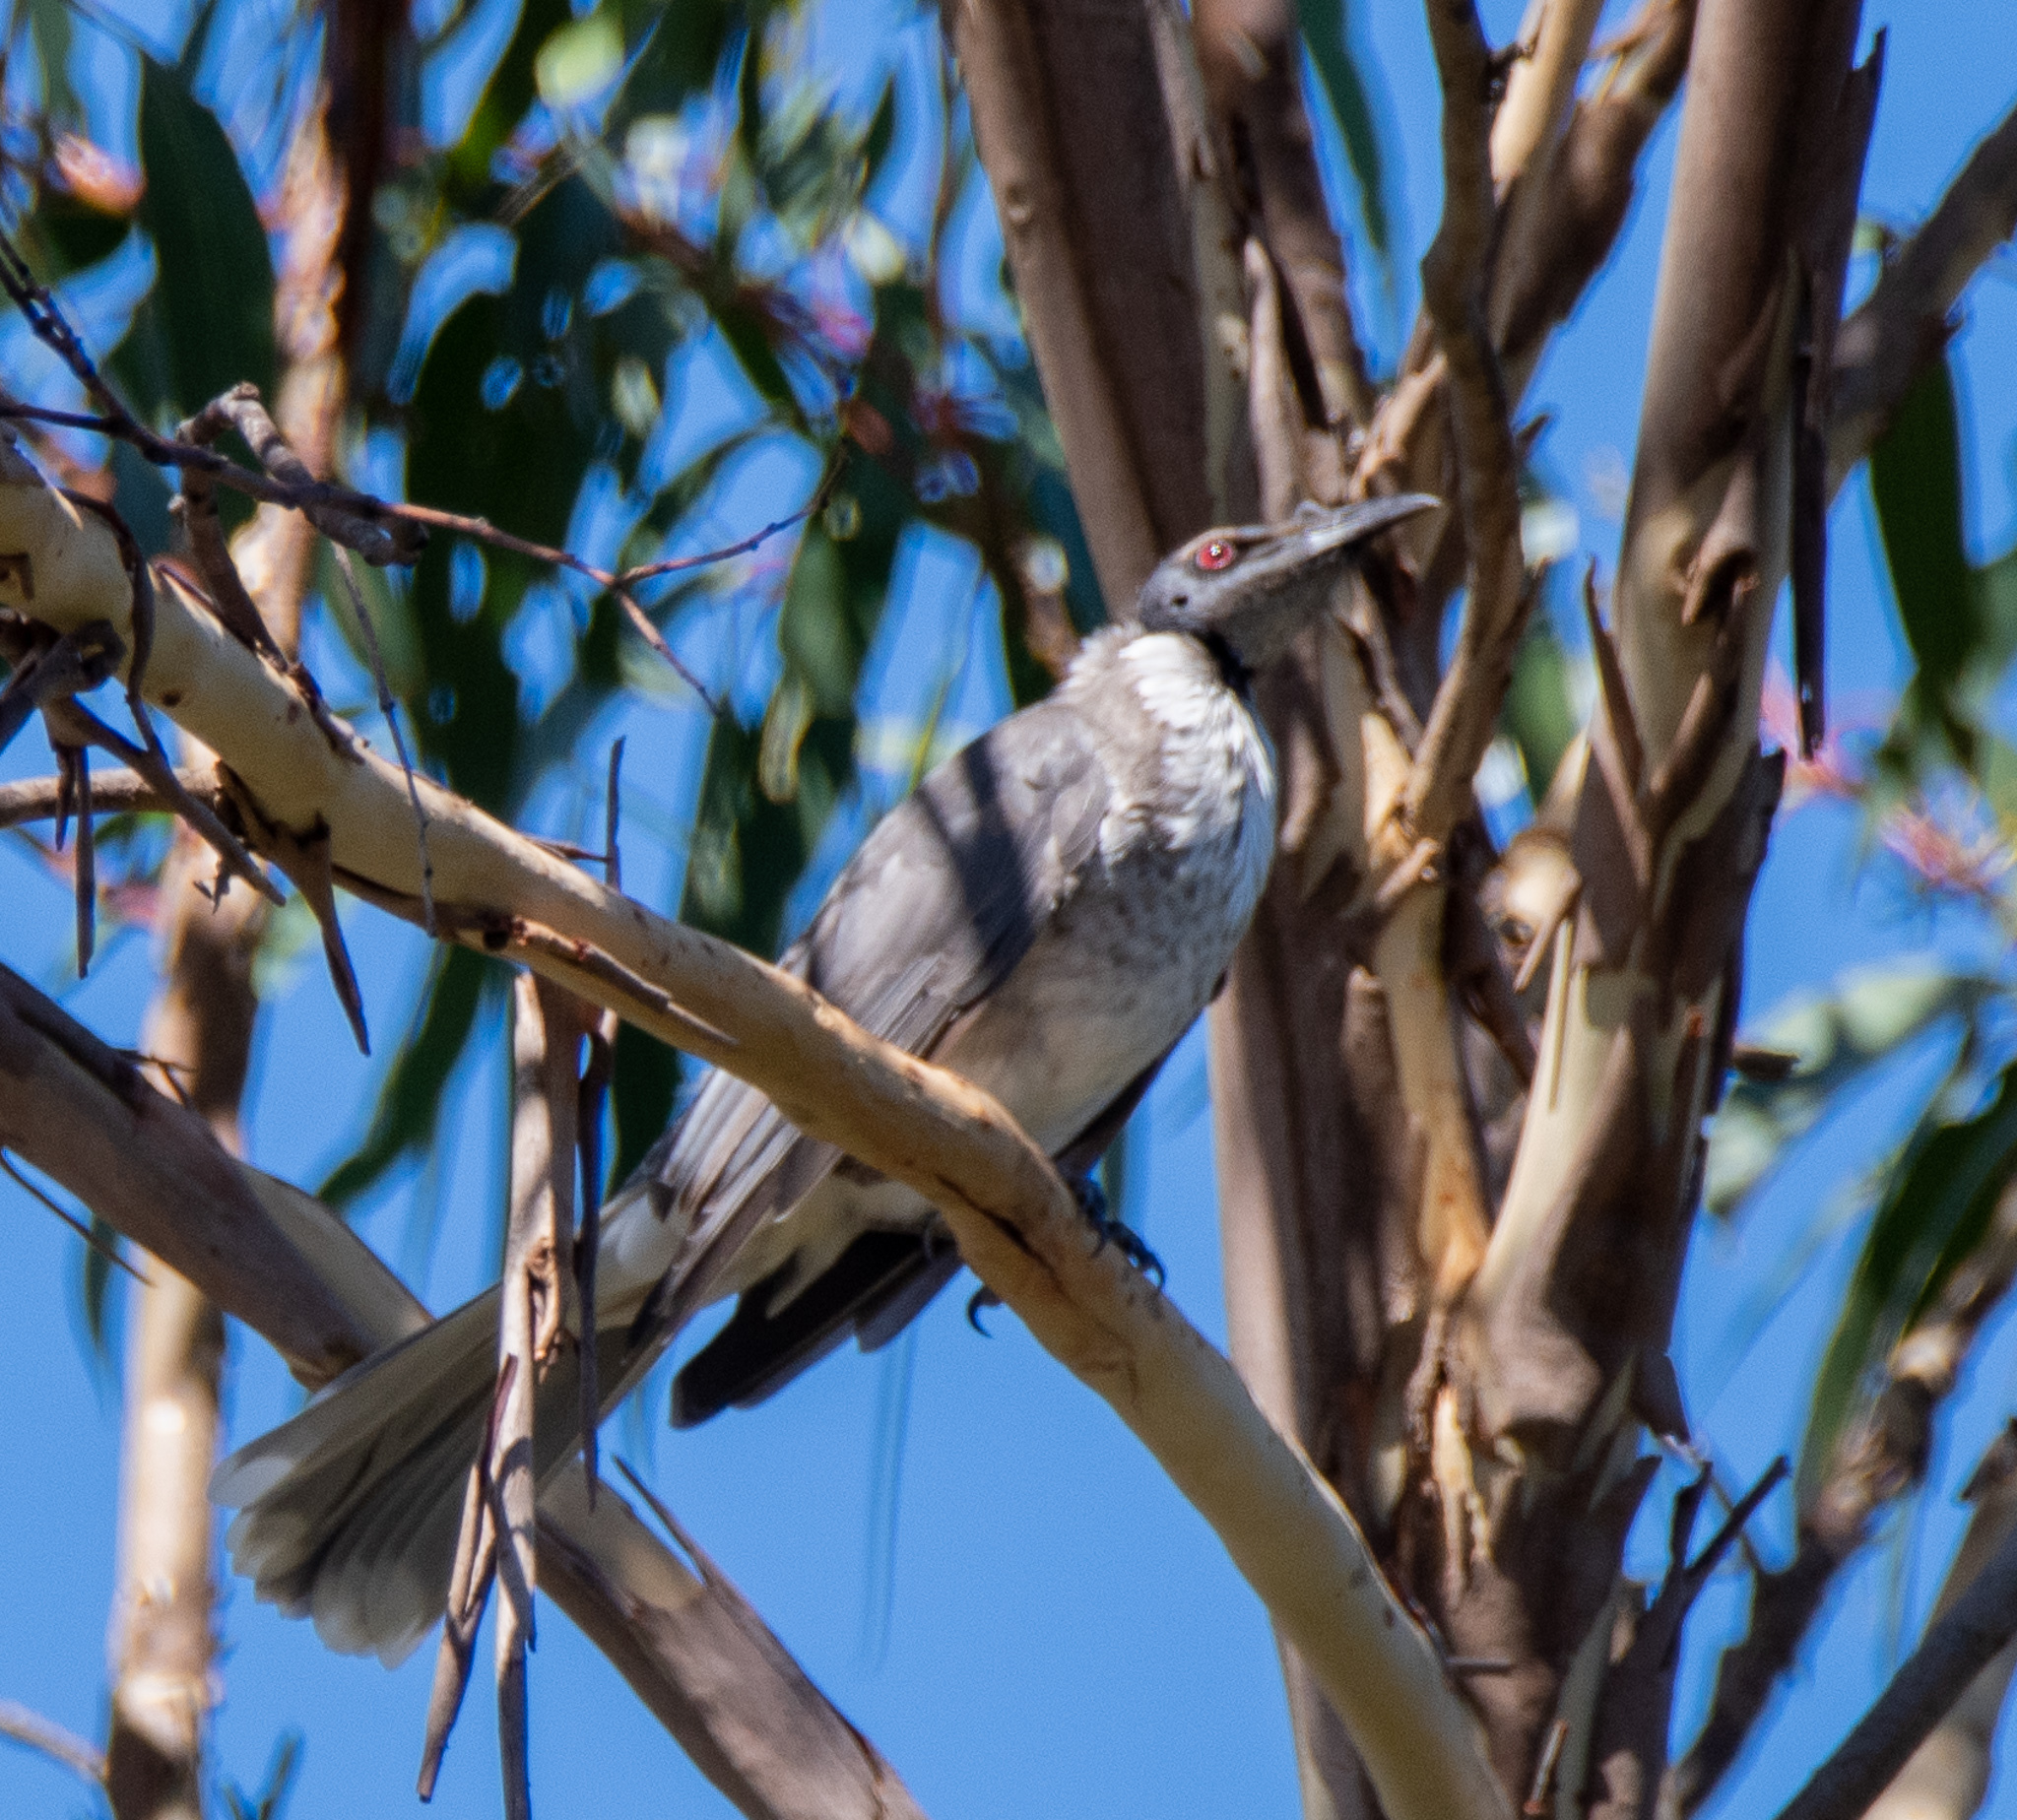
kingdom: Animalia
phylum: Chordata
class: Aves
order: Passeriformes
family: Meliphagidae
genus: Philemon
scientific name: Philemon corniculatus
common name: Noisy friarbird
